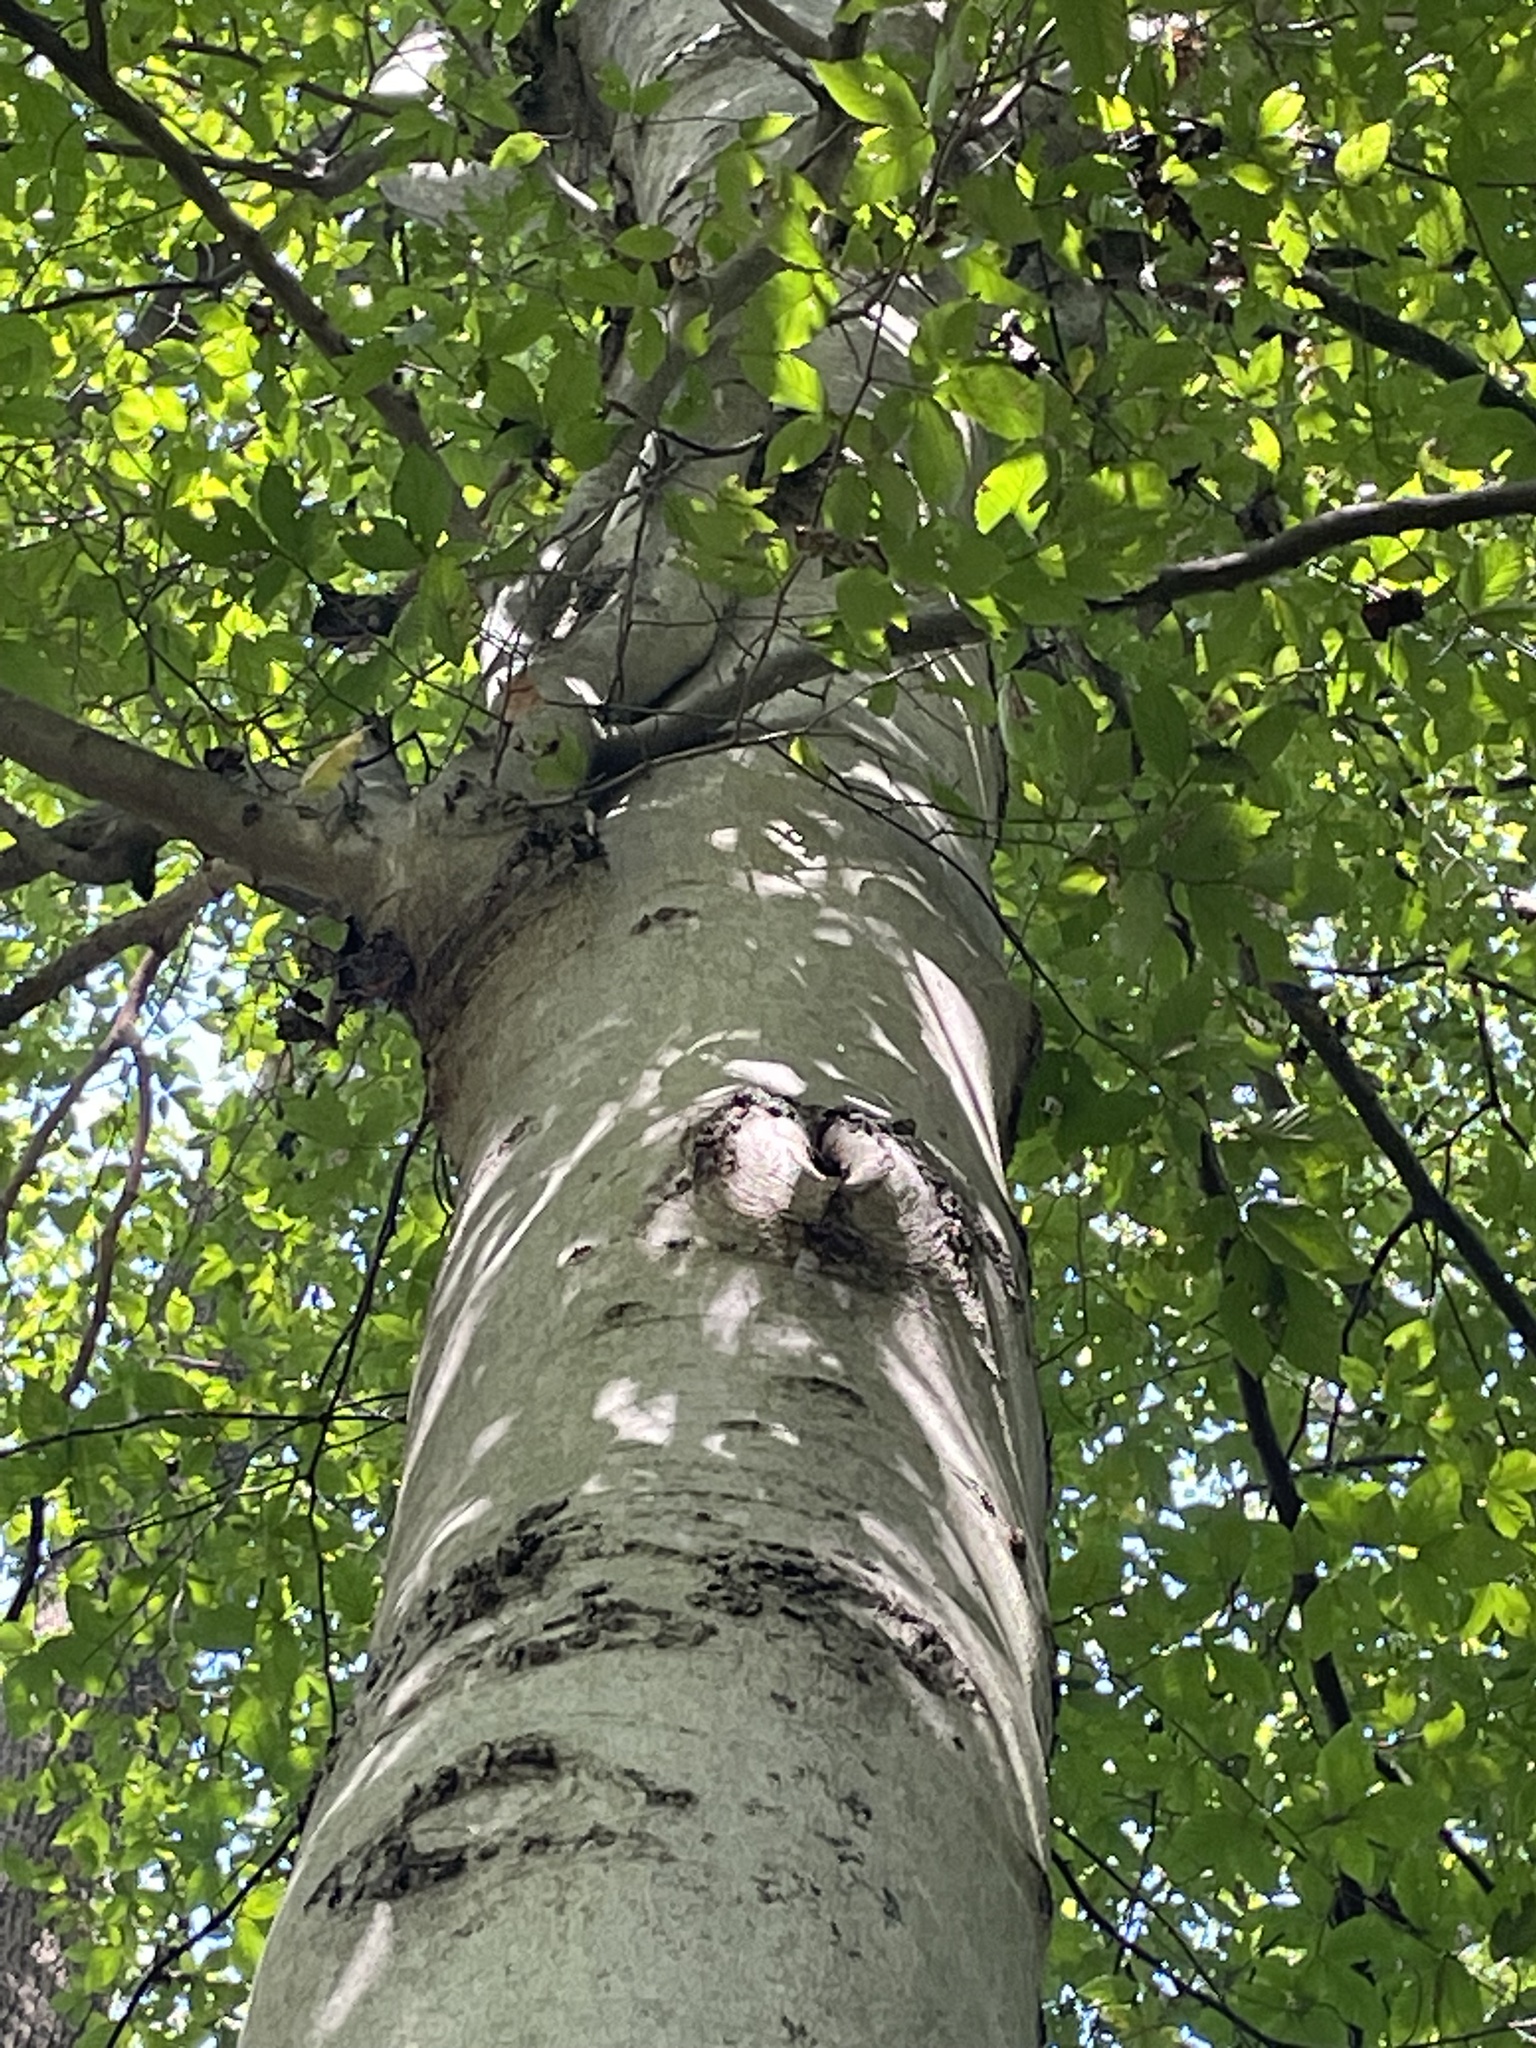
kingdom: Plantae
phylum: Tracheophyta
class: Magnoliopsida
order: Fagales
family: Fagaceae
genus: Fagus
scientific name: Fagus grandifolia
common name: American beech
